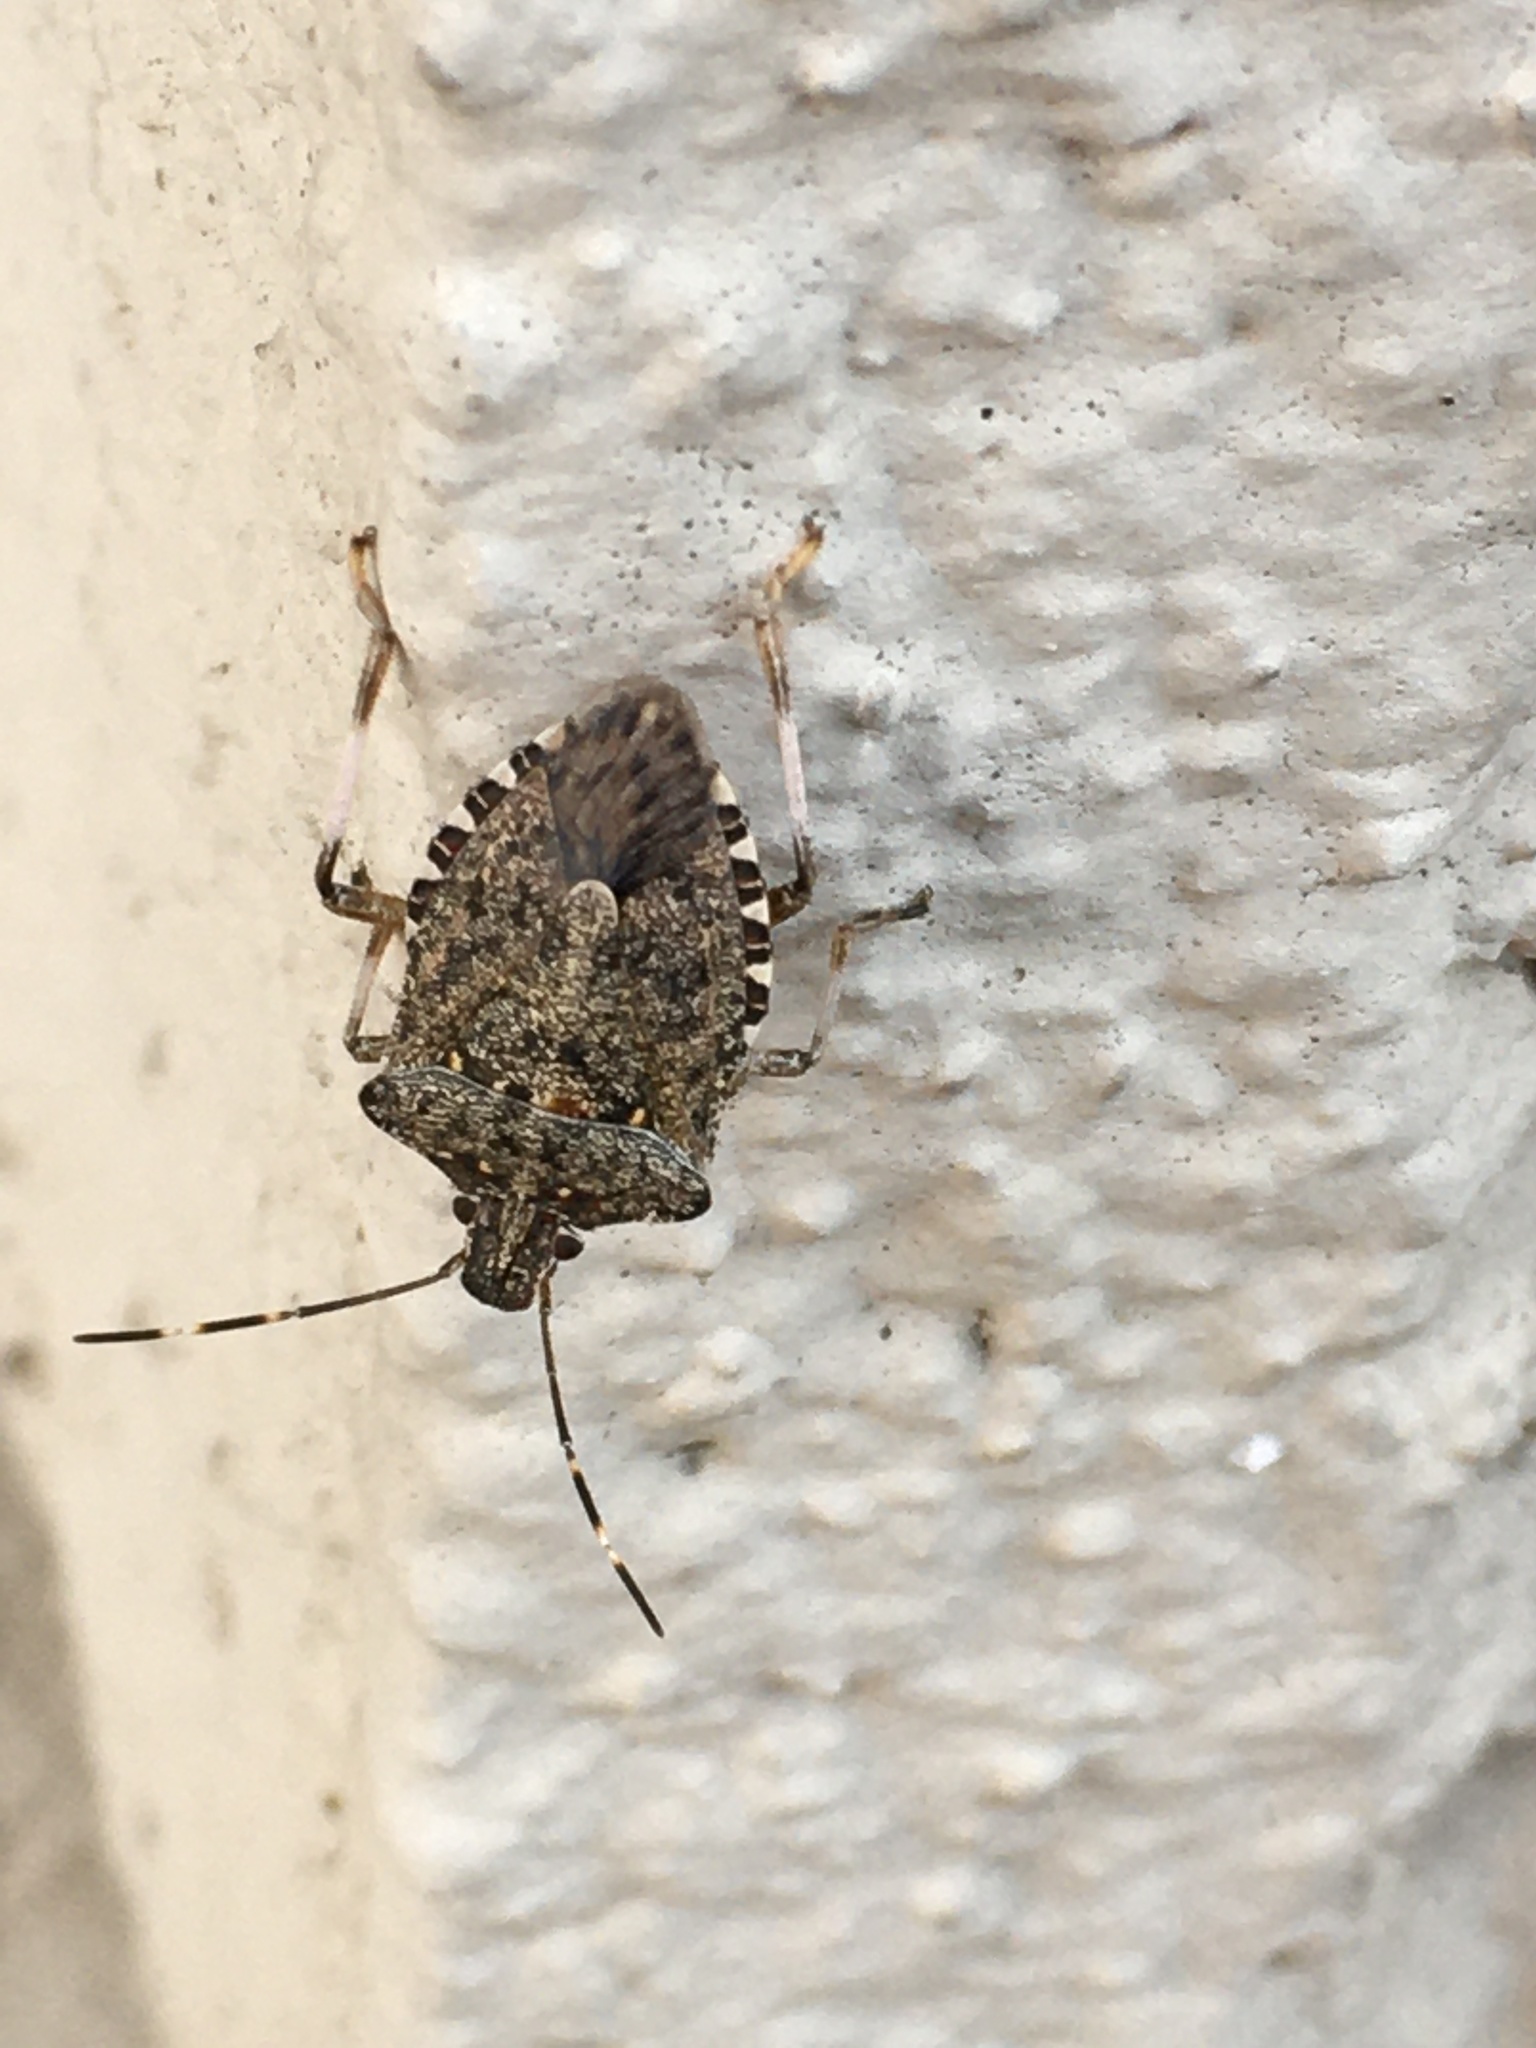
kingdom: Animalia
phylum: Arthropoda
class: Insecta
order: Hemiptera
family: Pentatomidae
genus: Halyomorpha
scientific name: Halyomorpha halys
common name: Brown marmorated stink bug
